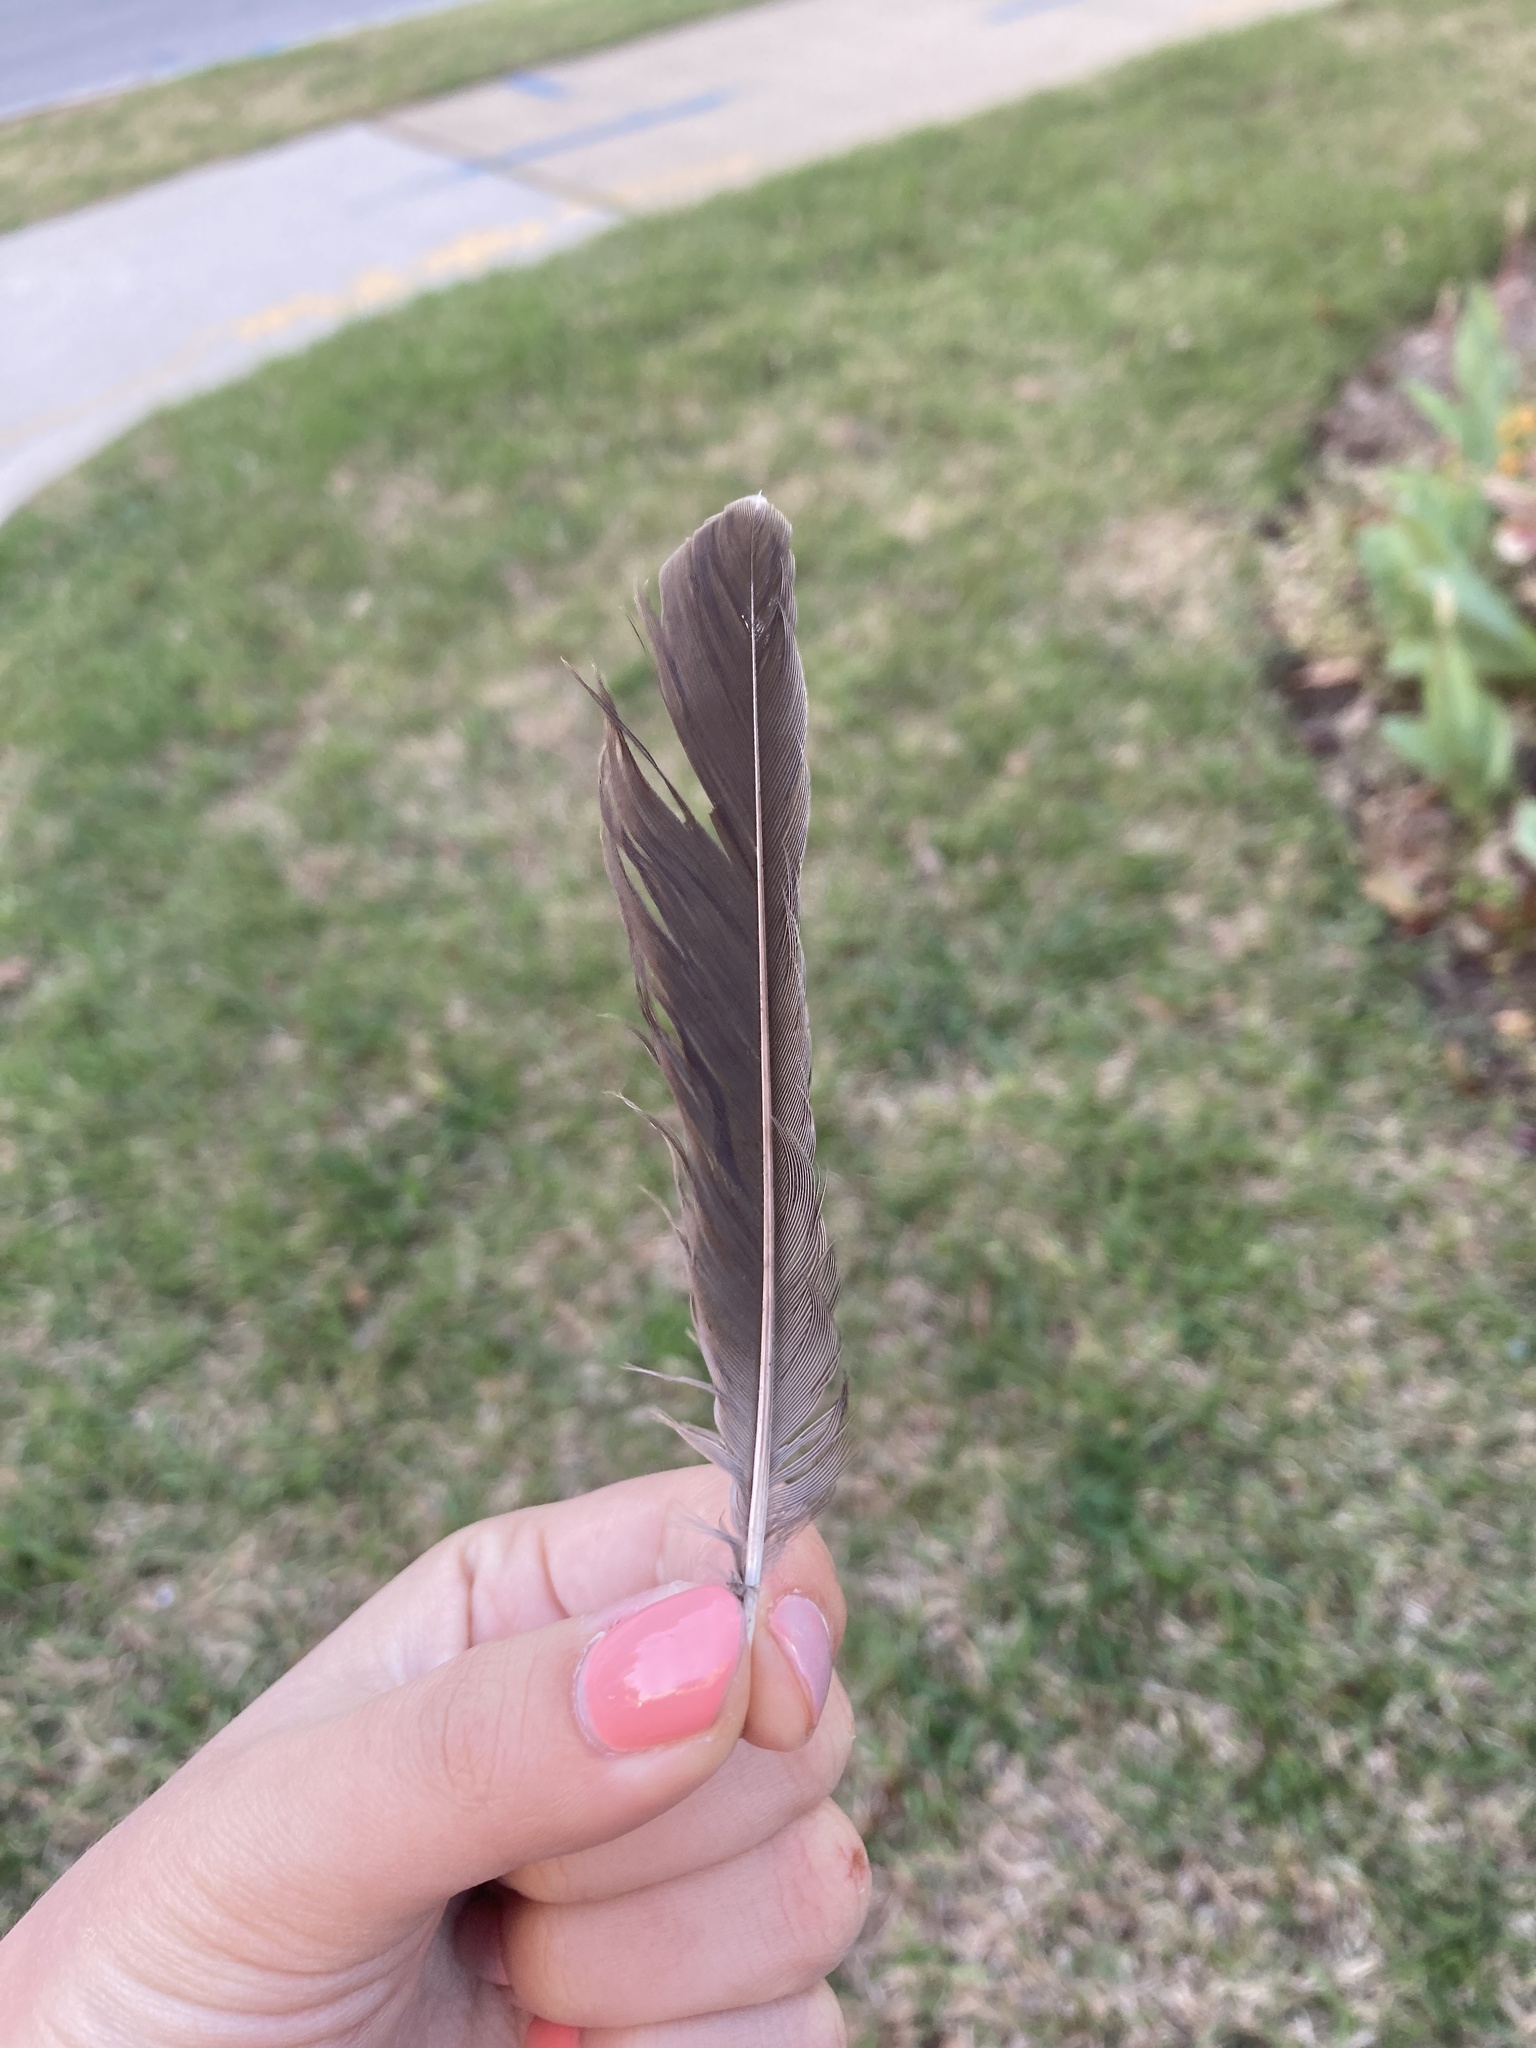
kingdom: Animalia
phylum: Chordata
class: Aves
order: Passeriformes
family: Turdidae
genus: Turdus
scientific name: Turdus migratorius
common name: American robin
